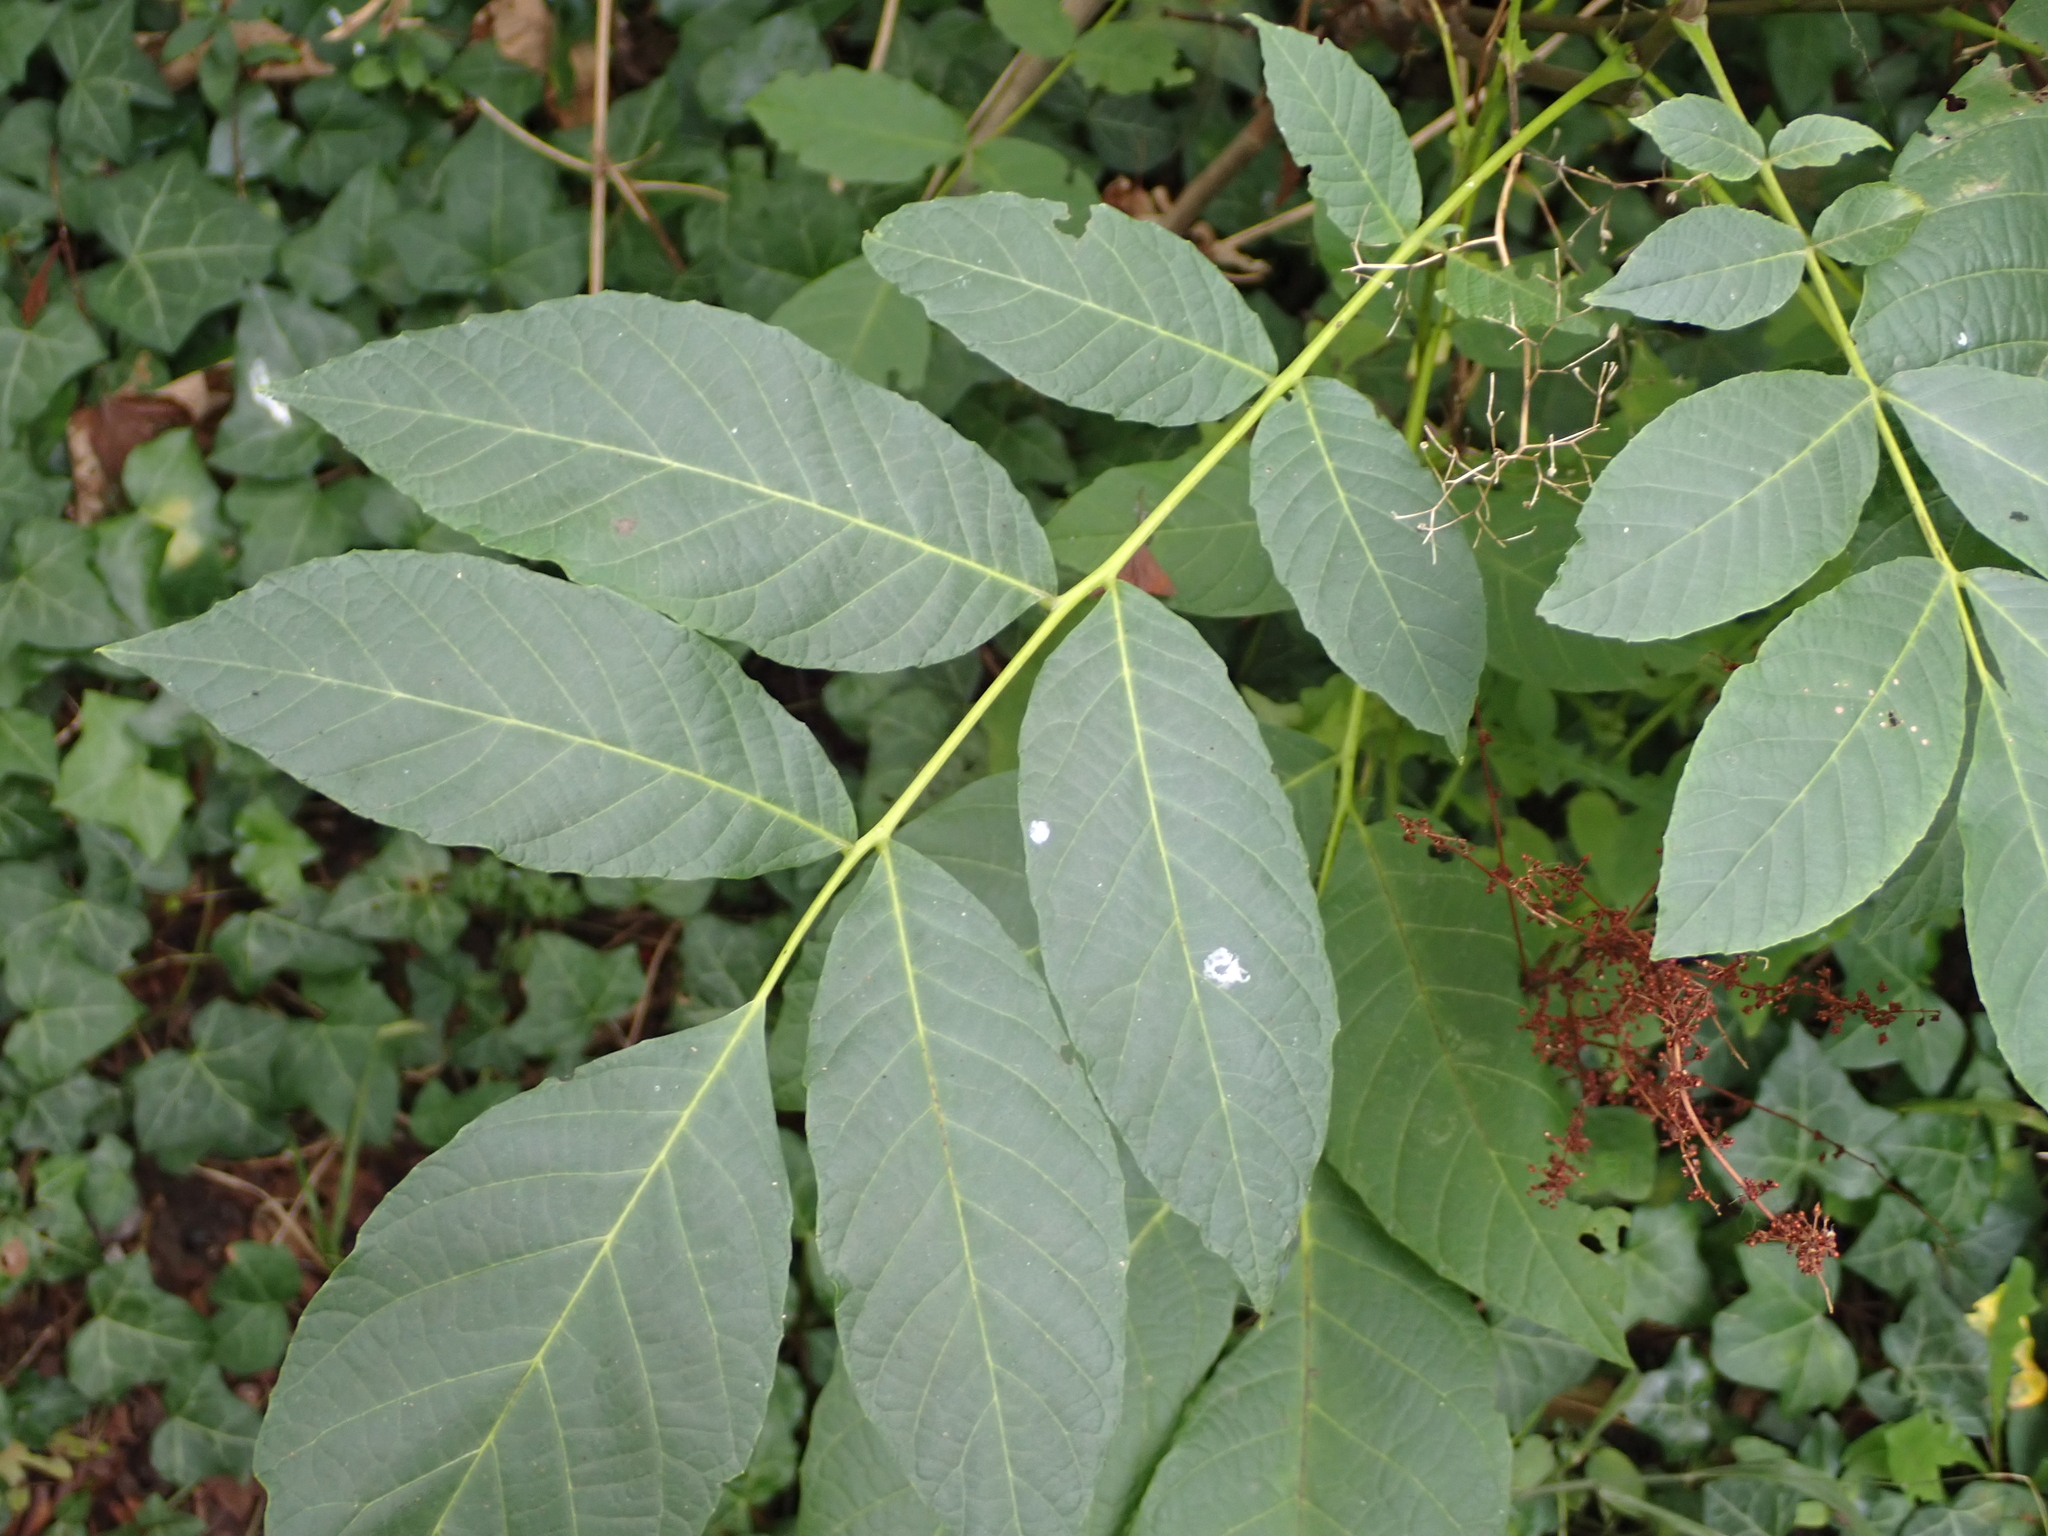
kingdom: Plantae
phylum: Tracheophyta
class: Magnoliopsida
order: Fagales
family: Juglandaceae
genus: Juglans
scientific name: Juglans regia
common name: Walnut
